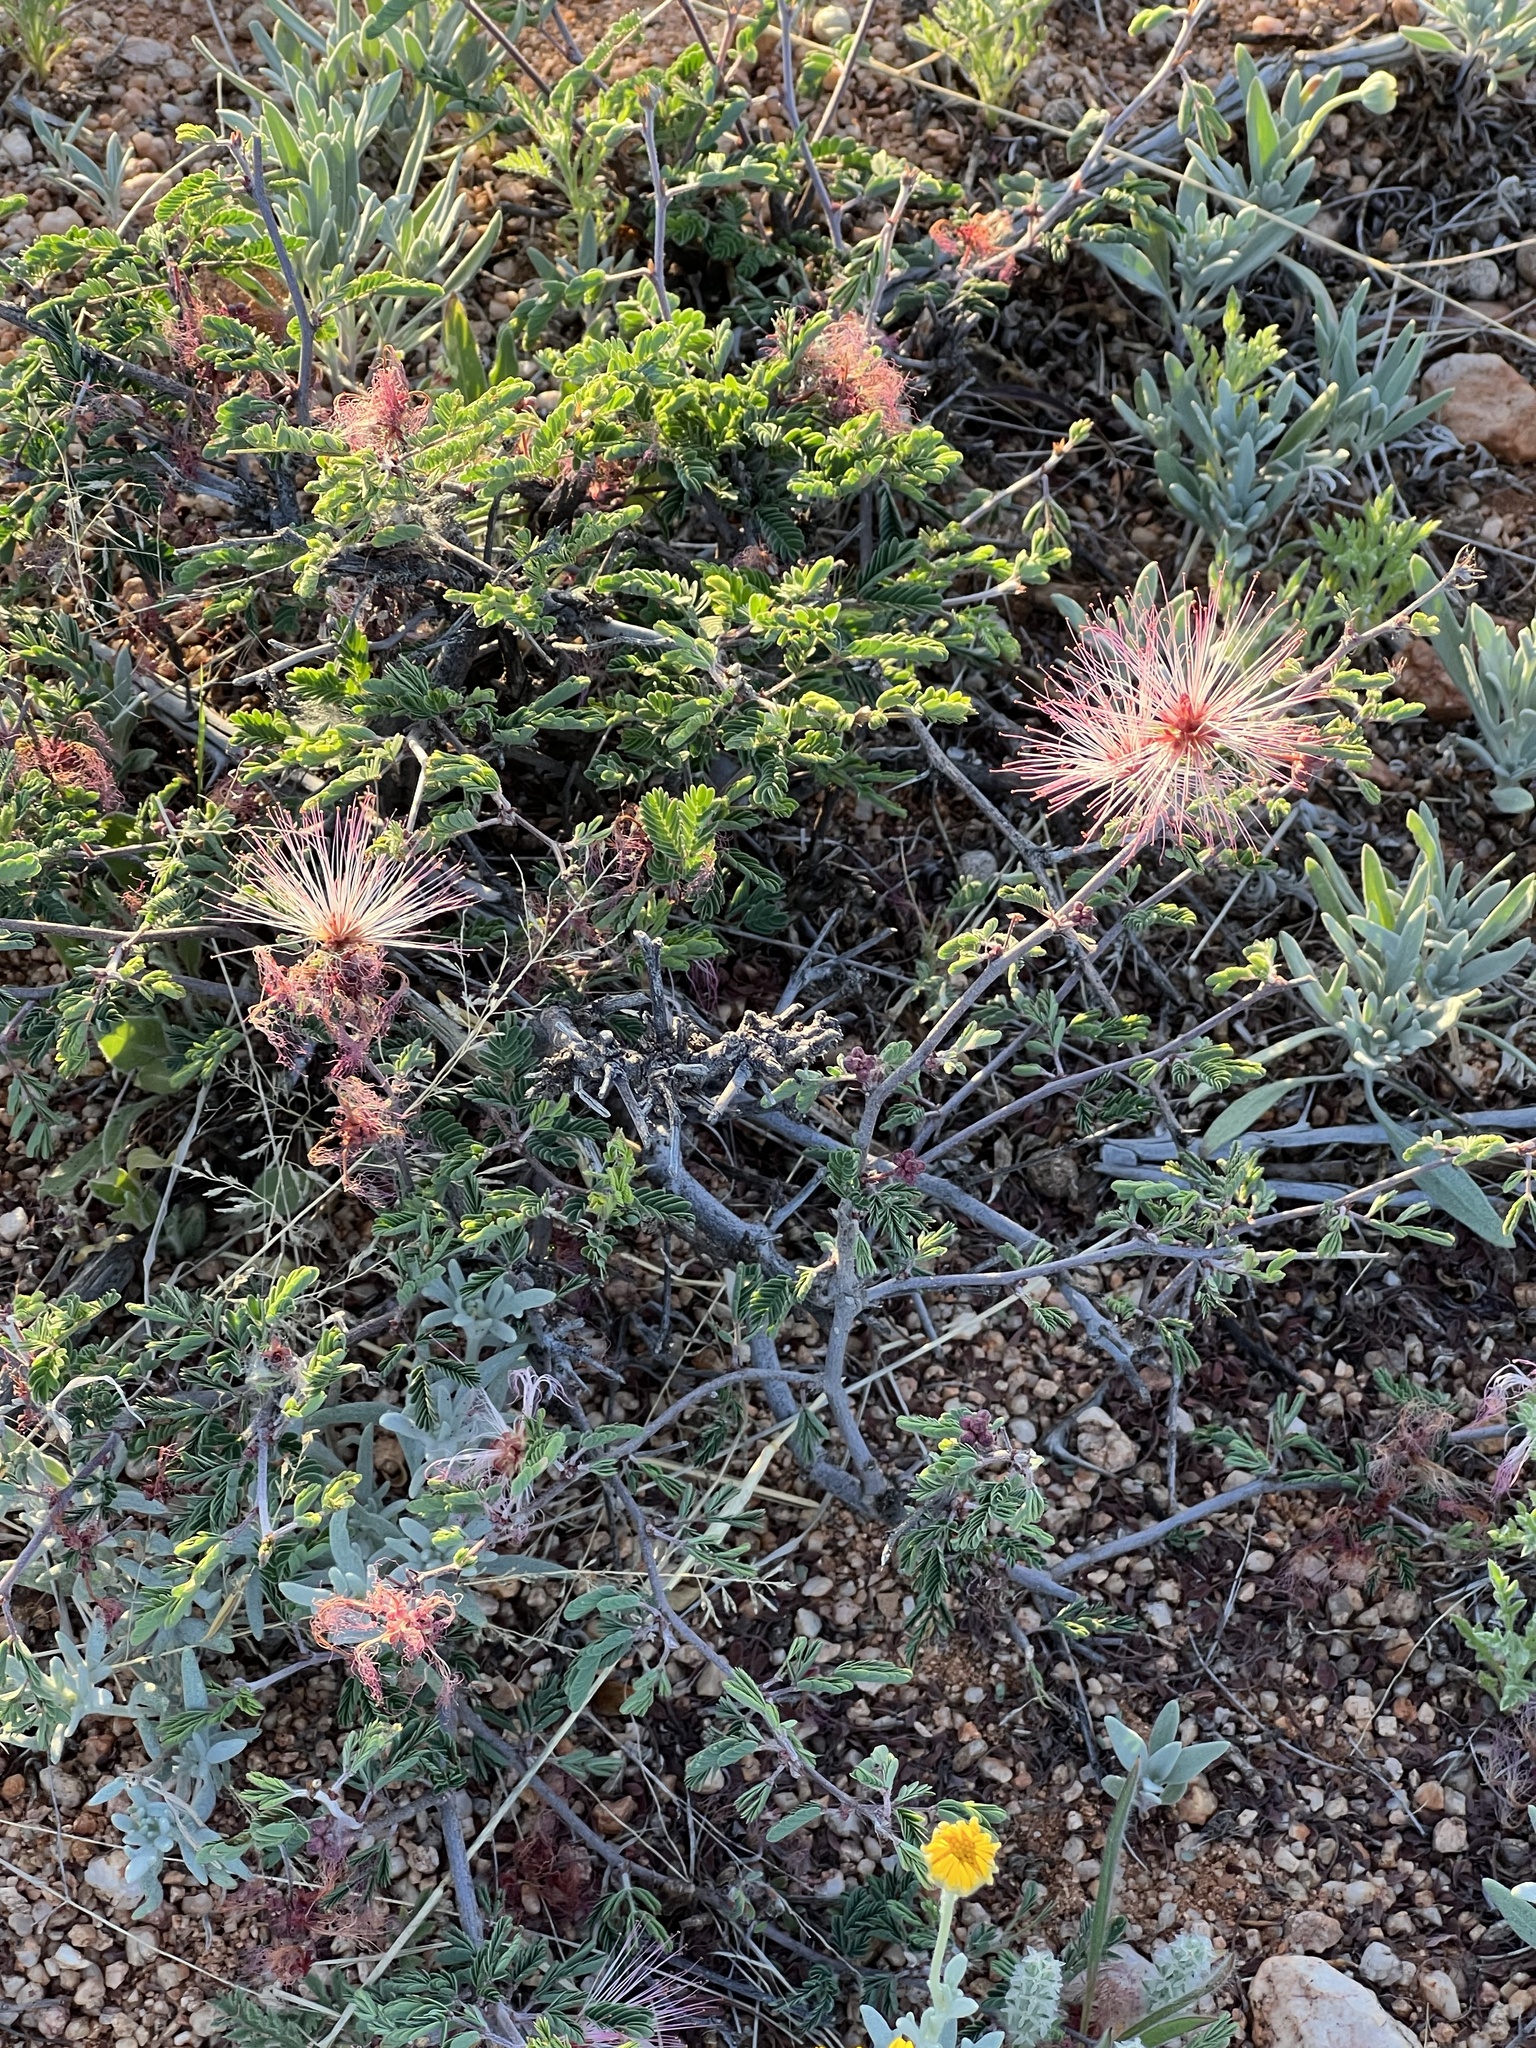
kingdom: Plantae
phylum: Tracheophyta
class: Magnoliopsida
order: Fabales
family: Fabaceae
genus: Calliandra
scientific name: Calliandra eriophylla
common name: Fairy-duster
